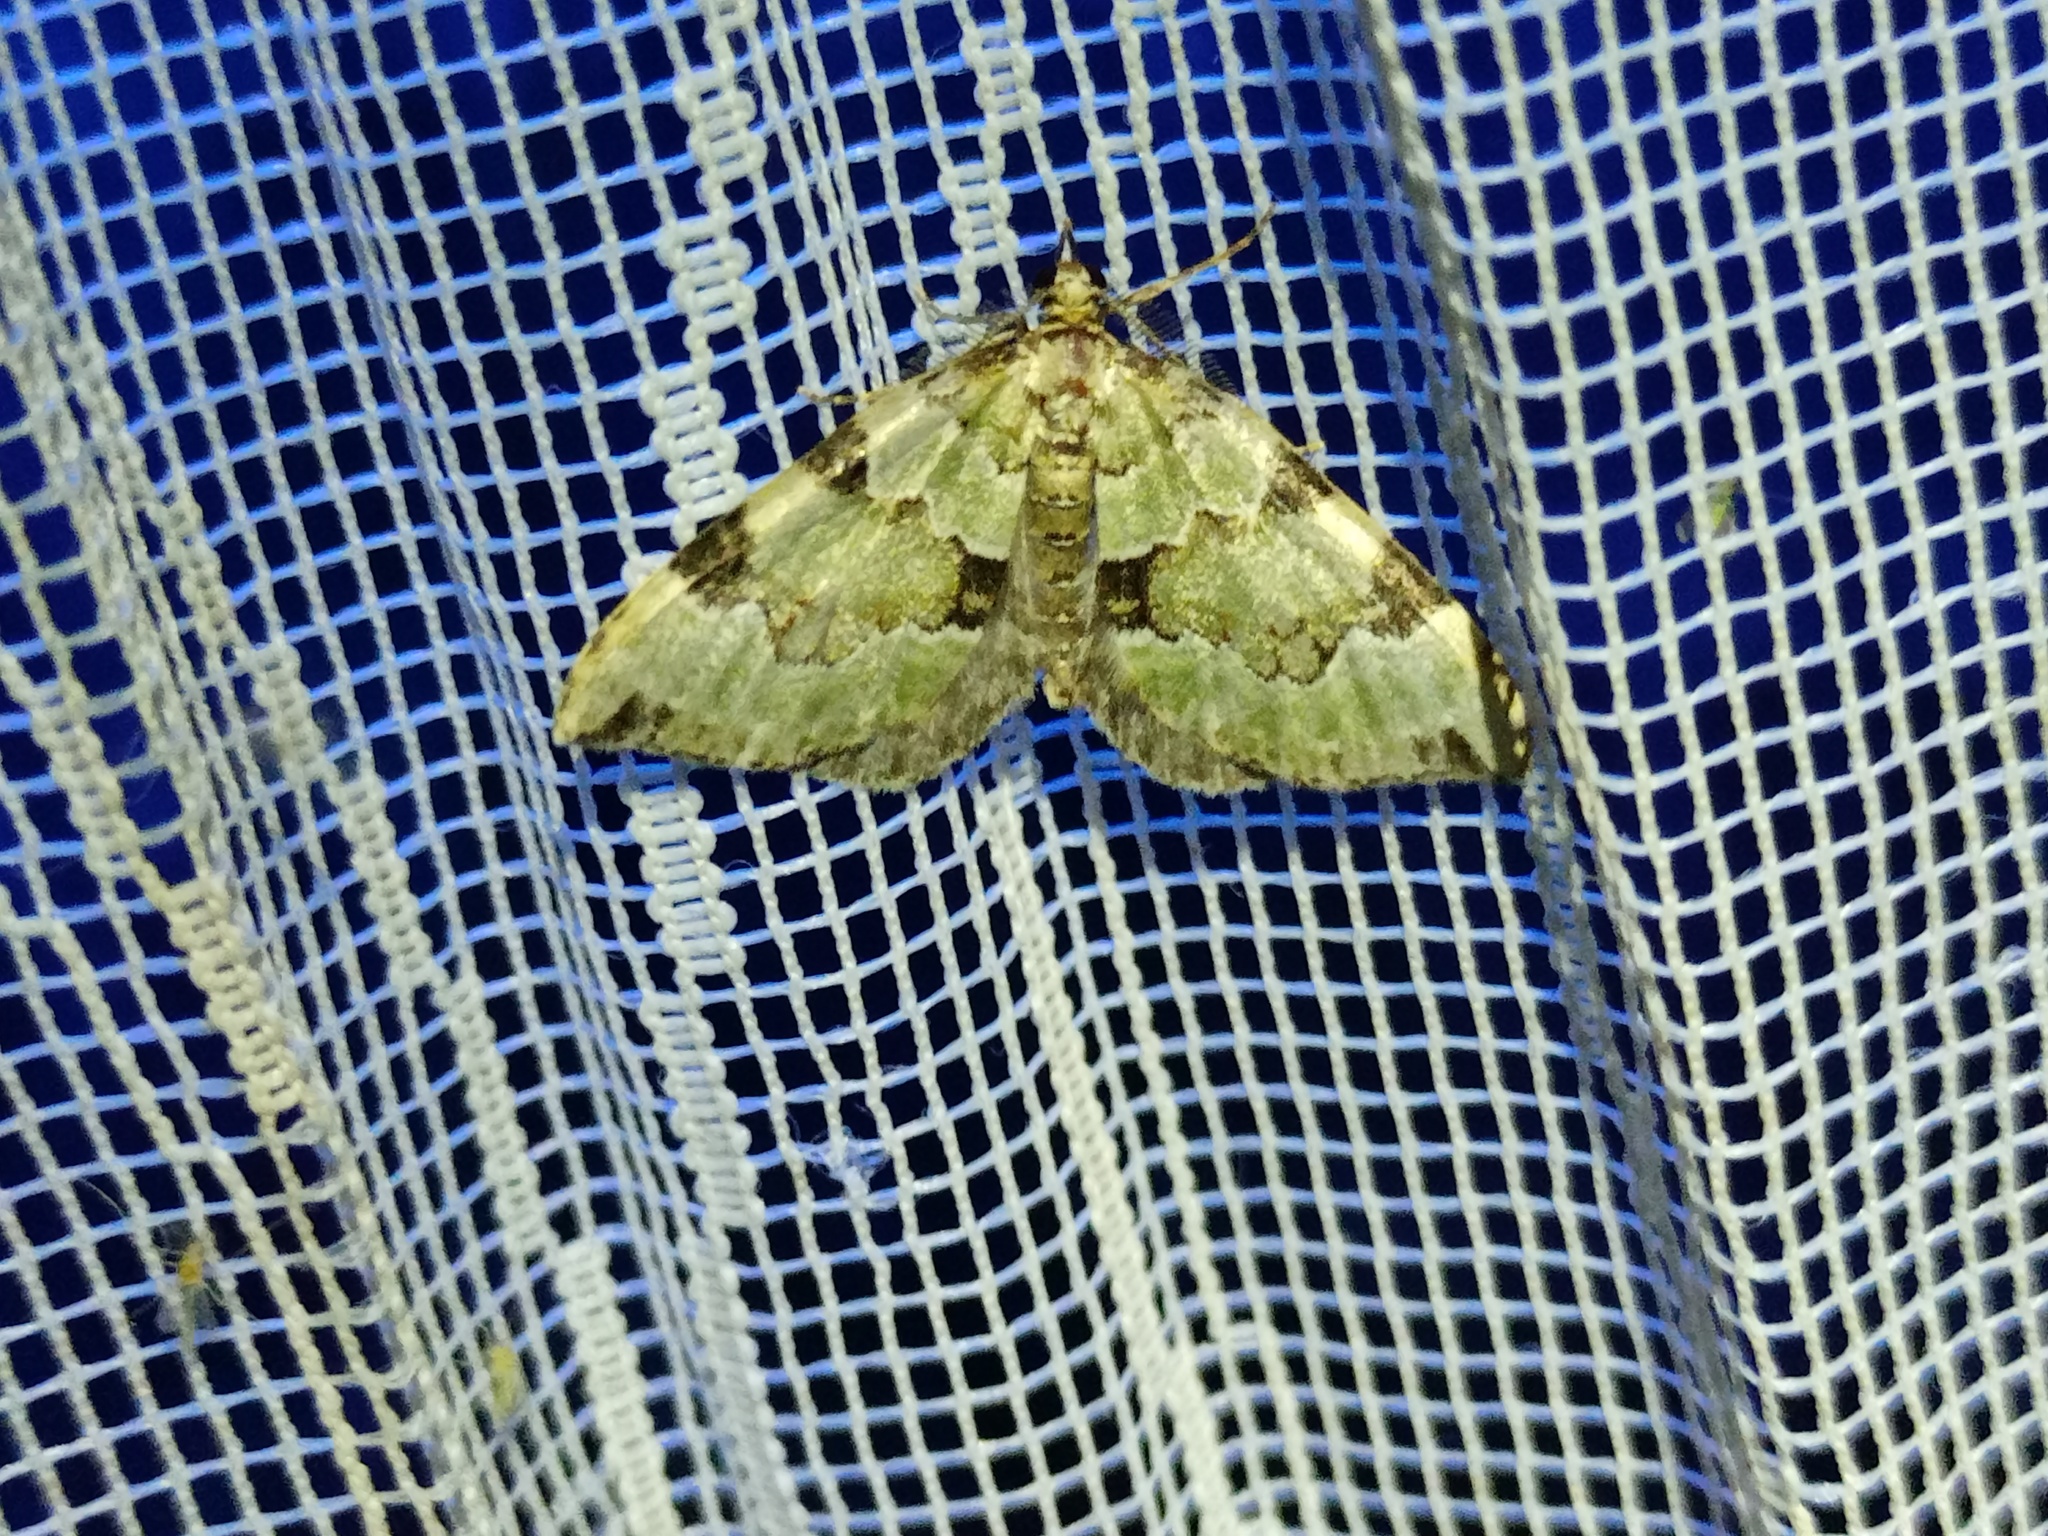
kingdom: Animalia
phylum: Arthropoda
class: Insecta
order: Lepidoptera
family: Geometridae
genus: Colostygia
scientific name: Colostygia pectinataria
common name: Green carpet
